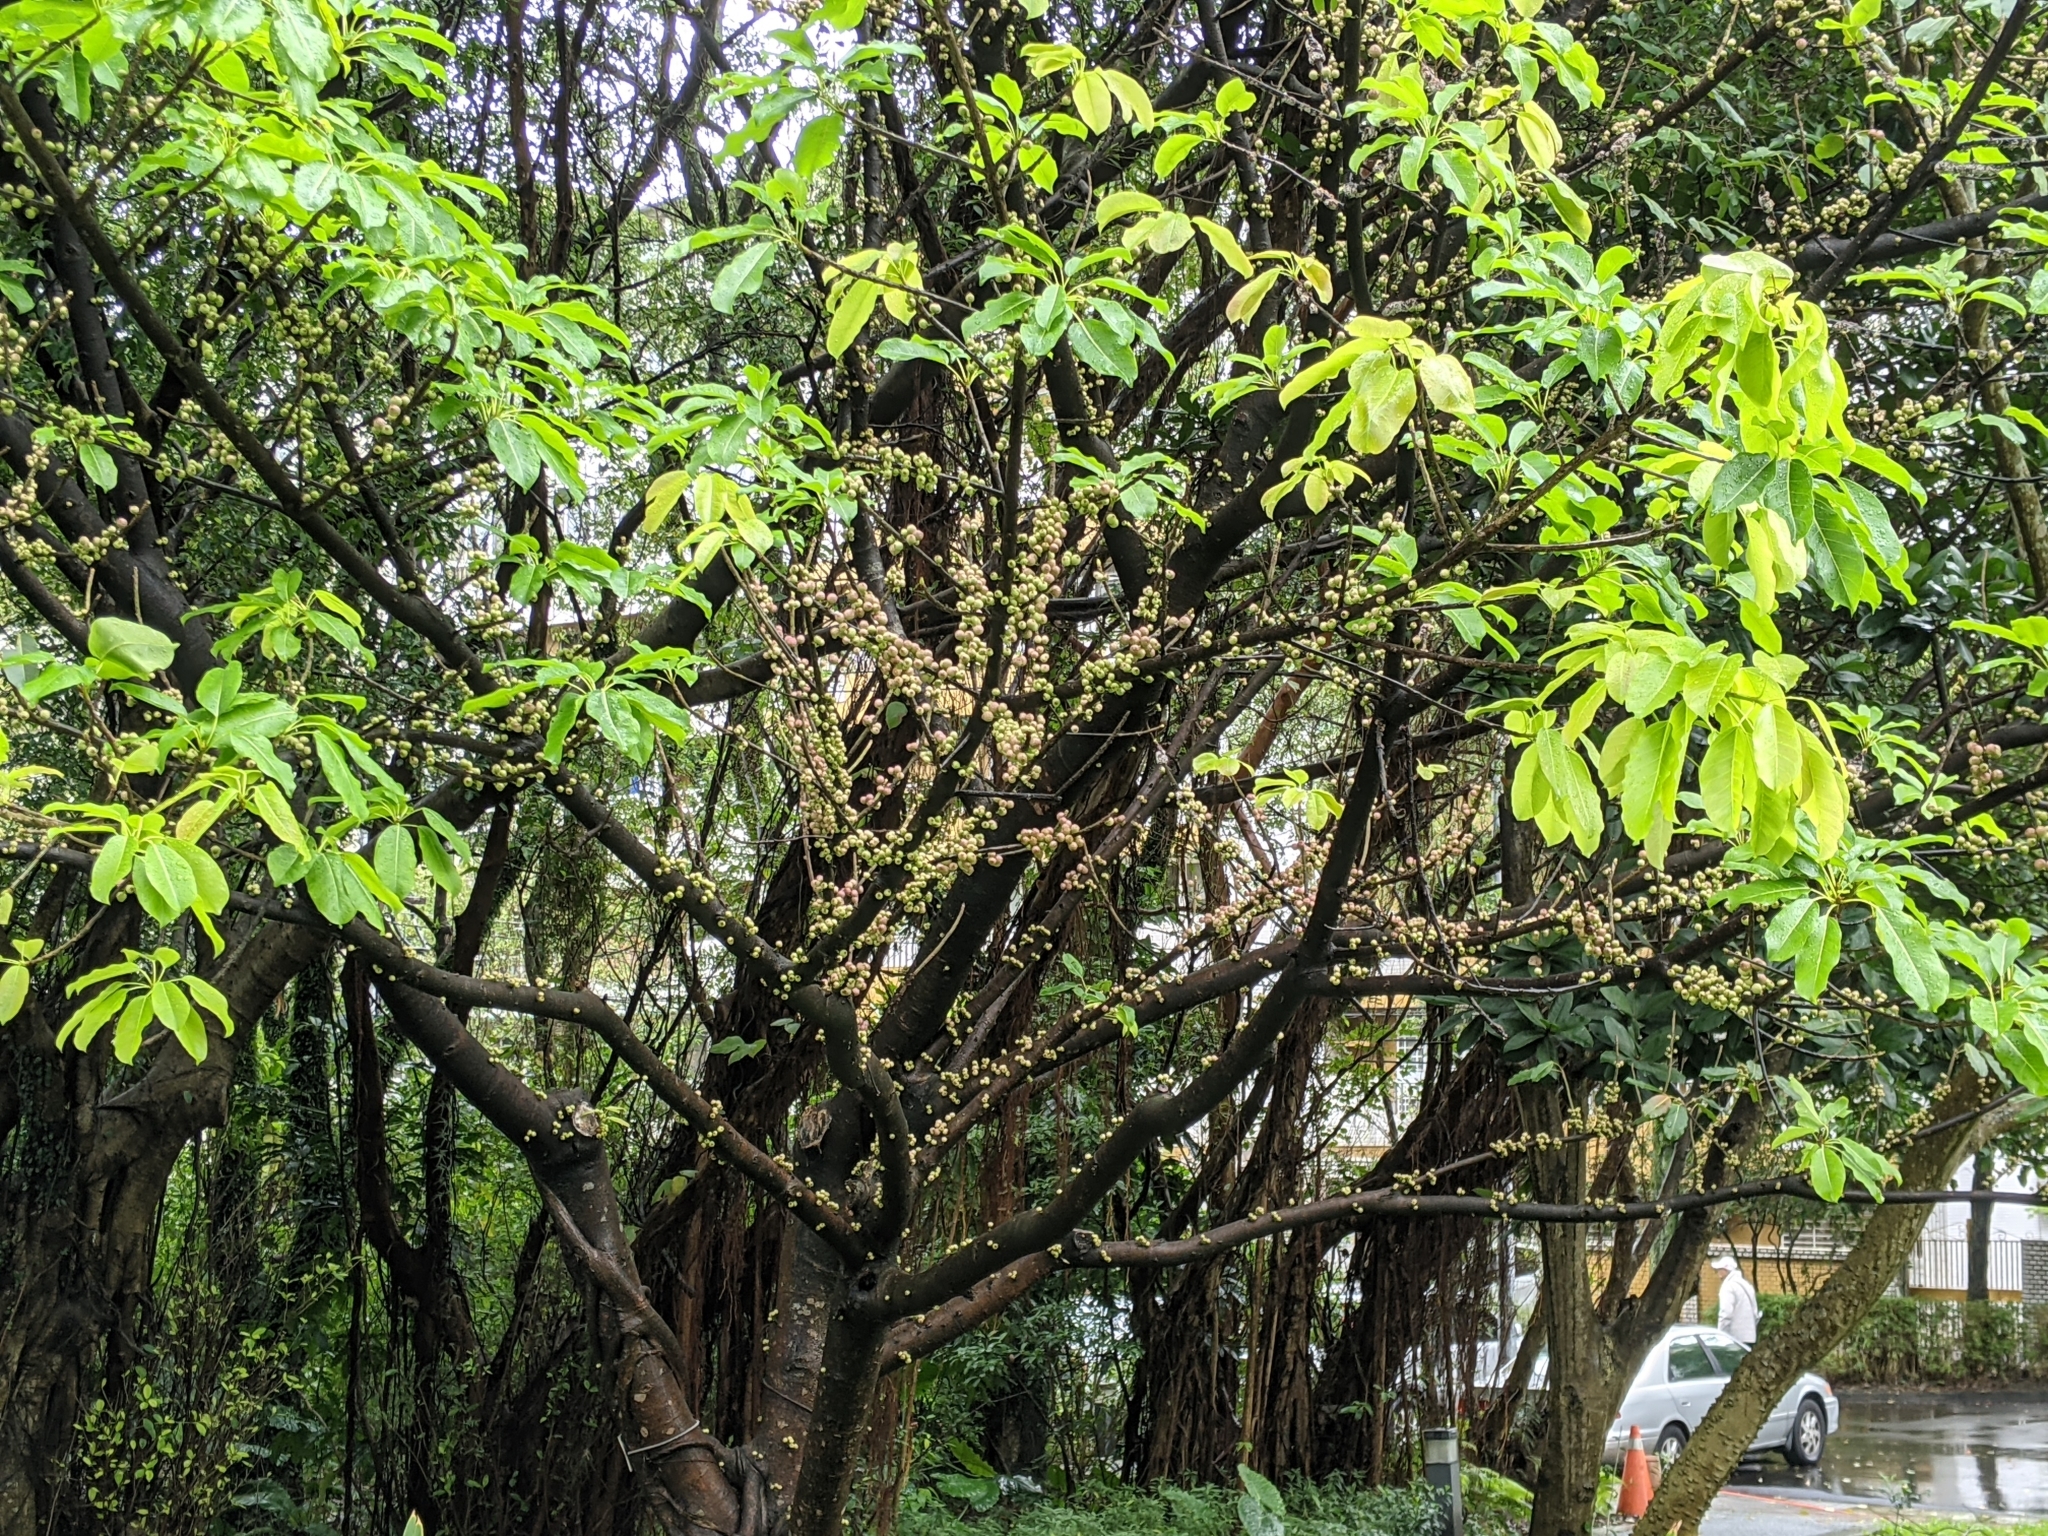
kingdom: Plantae
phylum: Tracheophyta
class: Magnoliopsida
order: Rosales
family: Moraceae
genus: Ficus
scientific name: Ficus subpisocarpa
